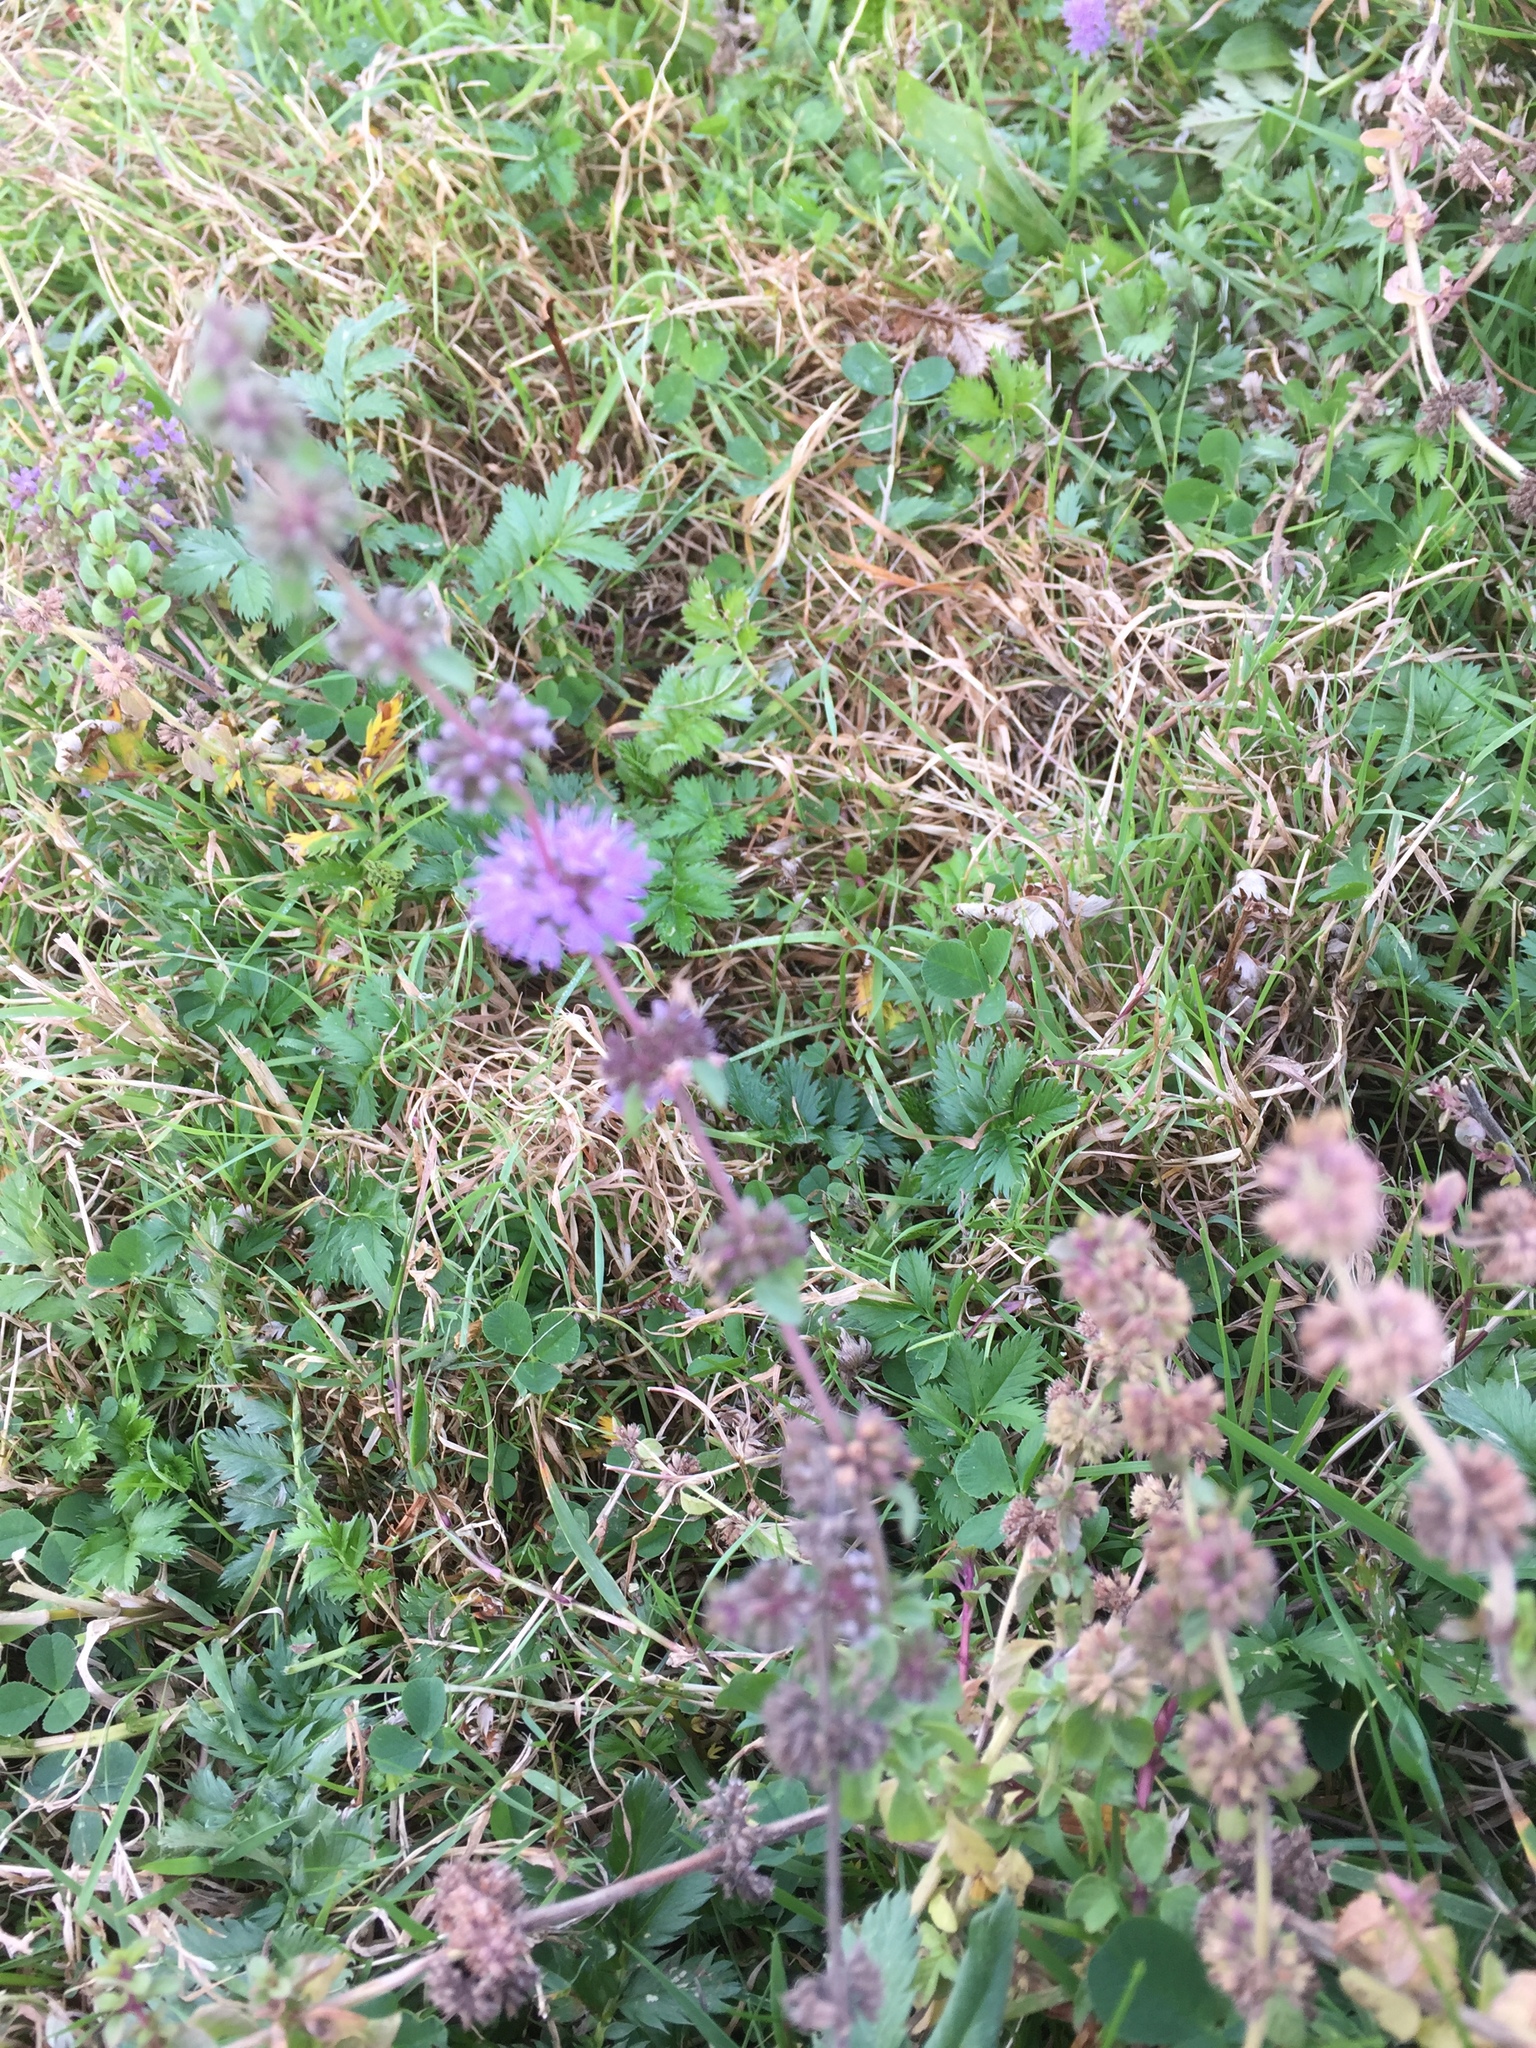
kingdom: Plantae
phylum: Tracheophyta
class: Magnoliopsida
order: Lamiales
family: Lamiaceae
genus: Mentha
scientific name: Mentha pulegium
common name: Pennyroyal
